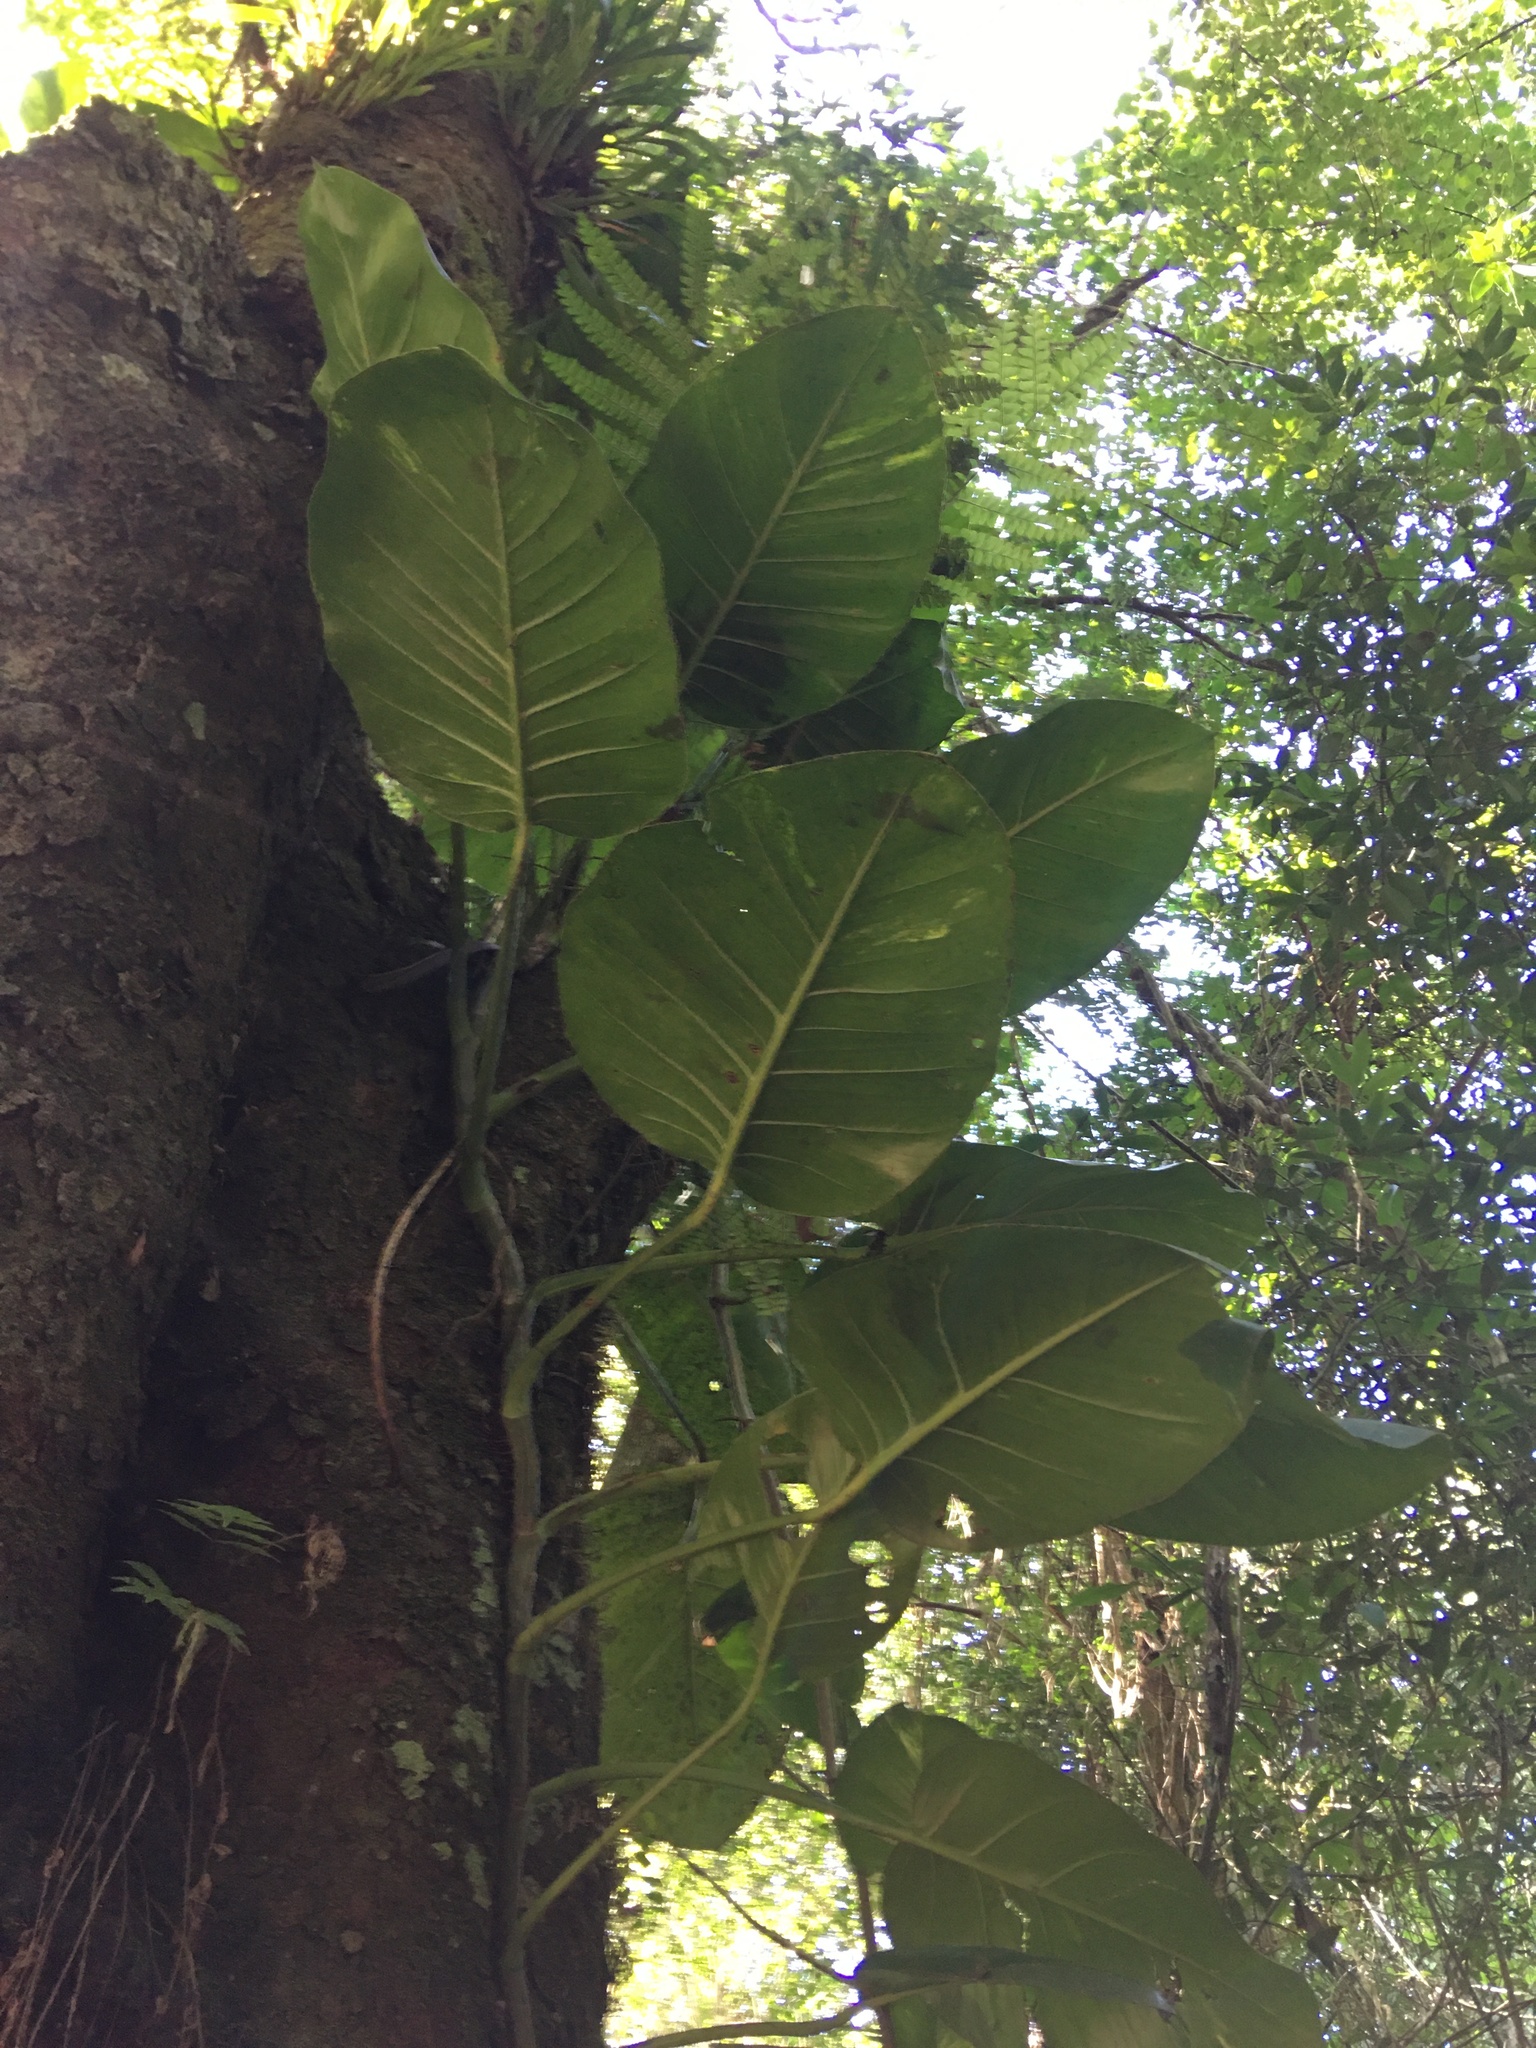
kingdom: Plantae
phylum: Tracheophyta
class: Liliopsida
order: Alismatales
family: Araceae
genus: Epipremnum
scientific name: Epipremnum aureum
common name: Golden hunter's-robe
